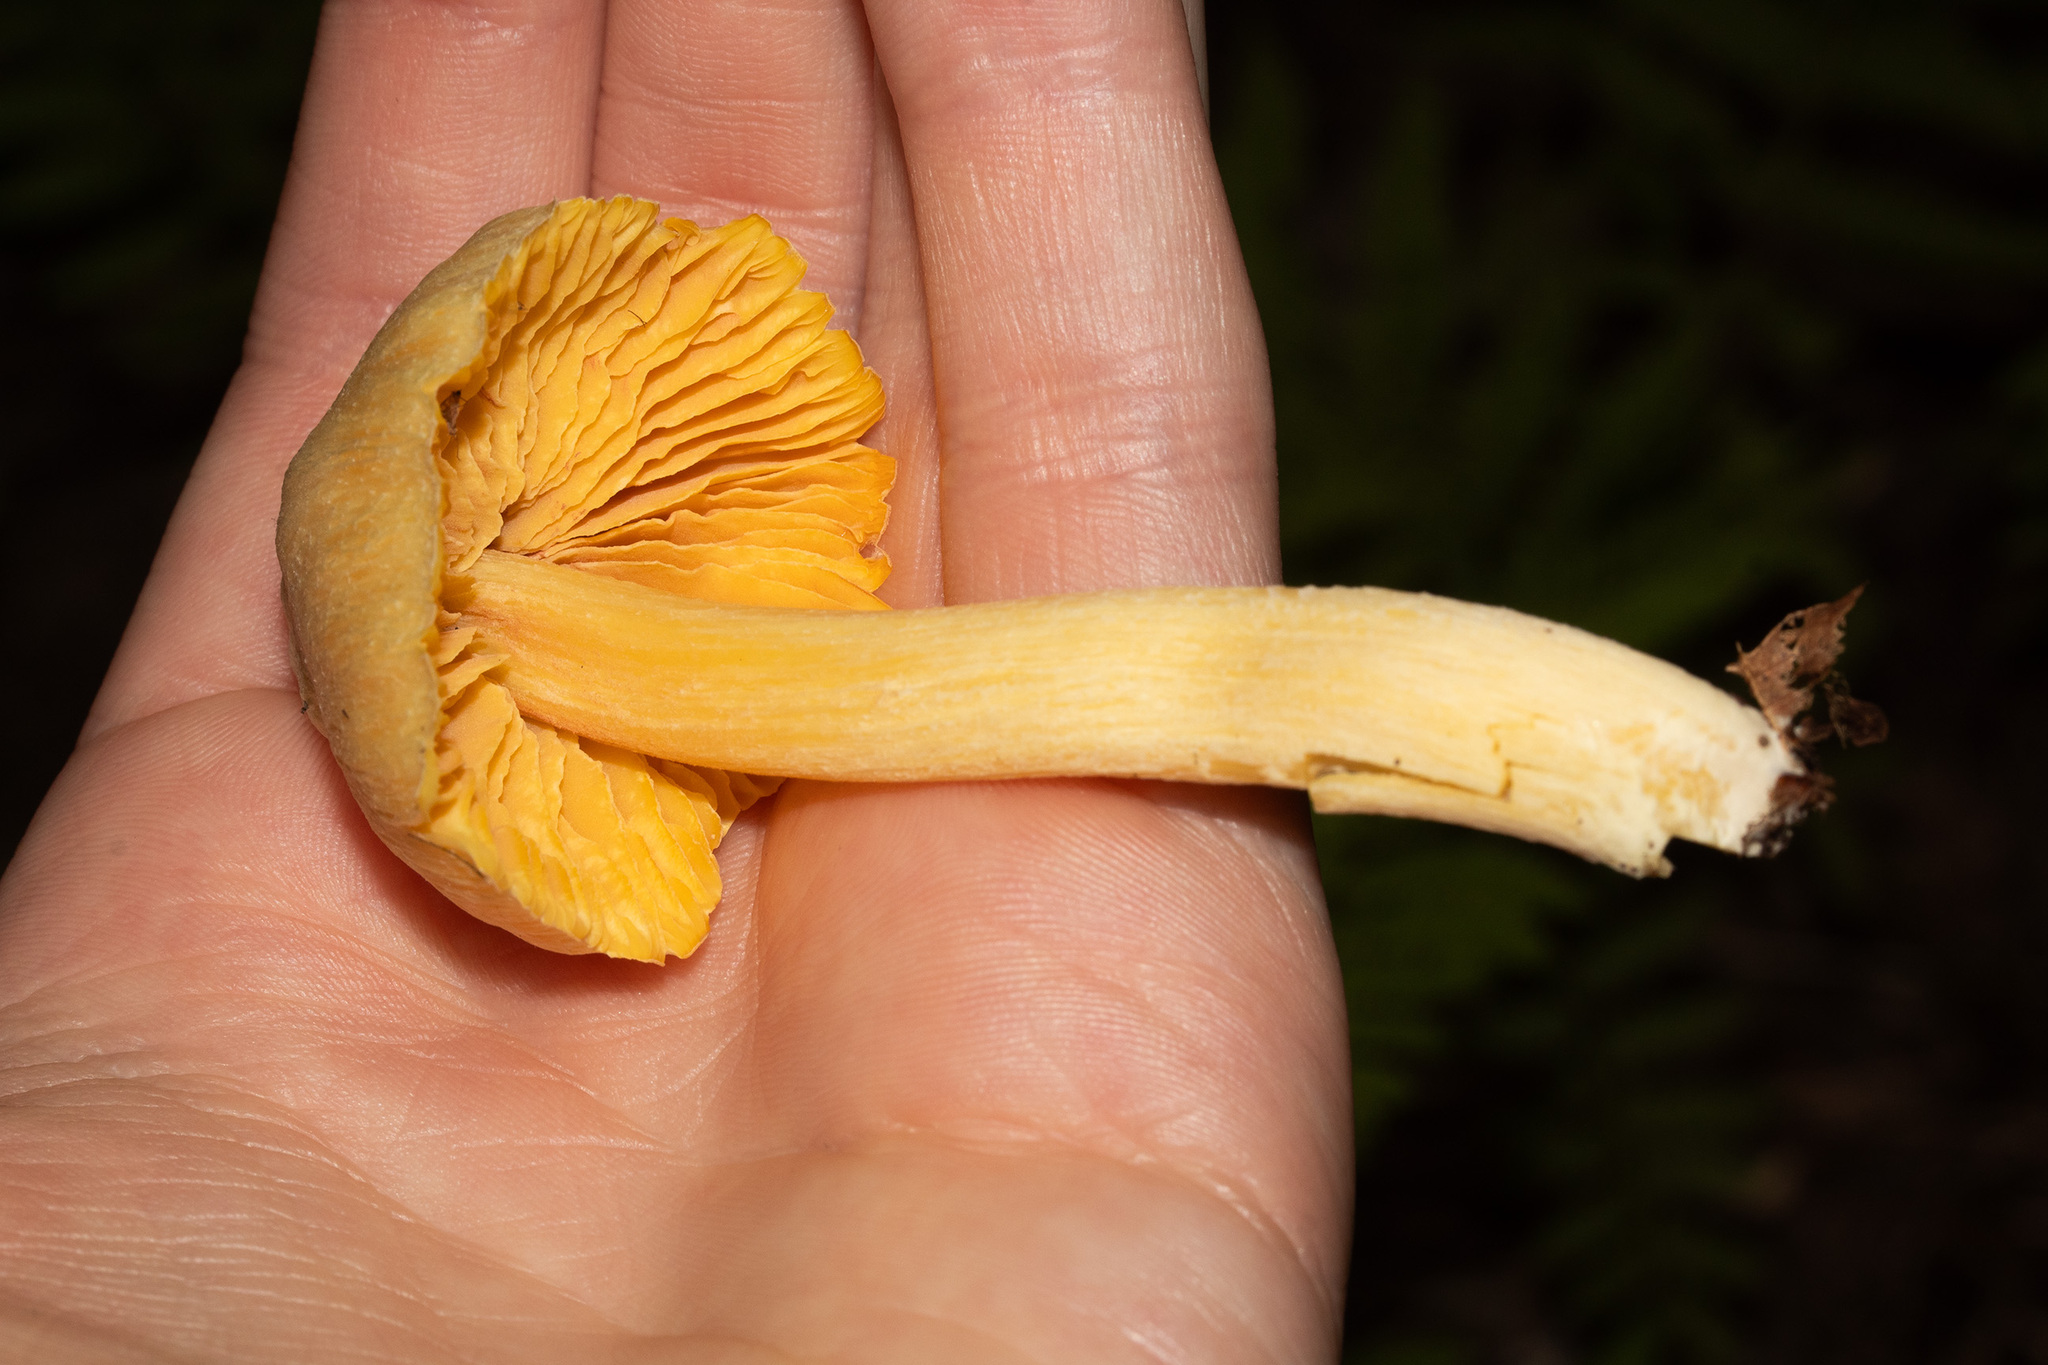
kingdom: Fungi
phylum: Basidiomycota
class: Agaricomycetes
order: Agaricales
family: Entolomataceae
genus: Entoloma
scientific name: Entoloma murrayi
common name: Yellow unicorn entoloma
